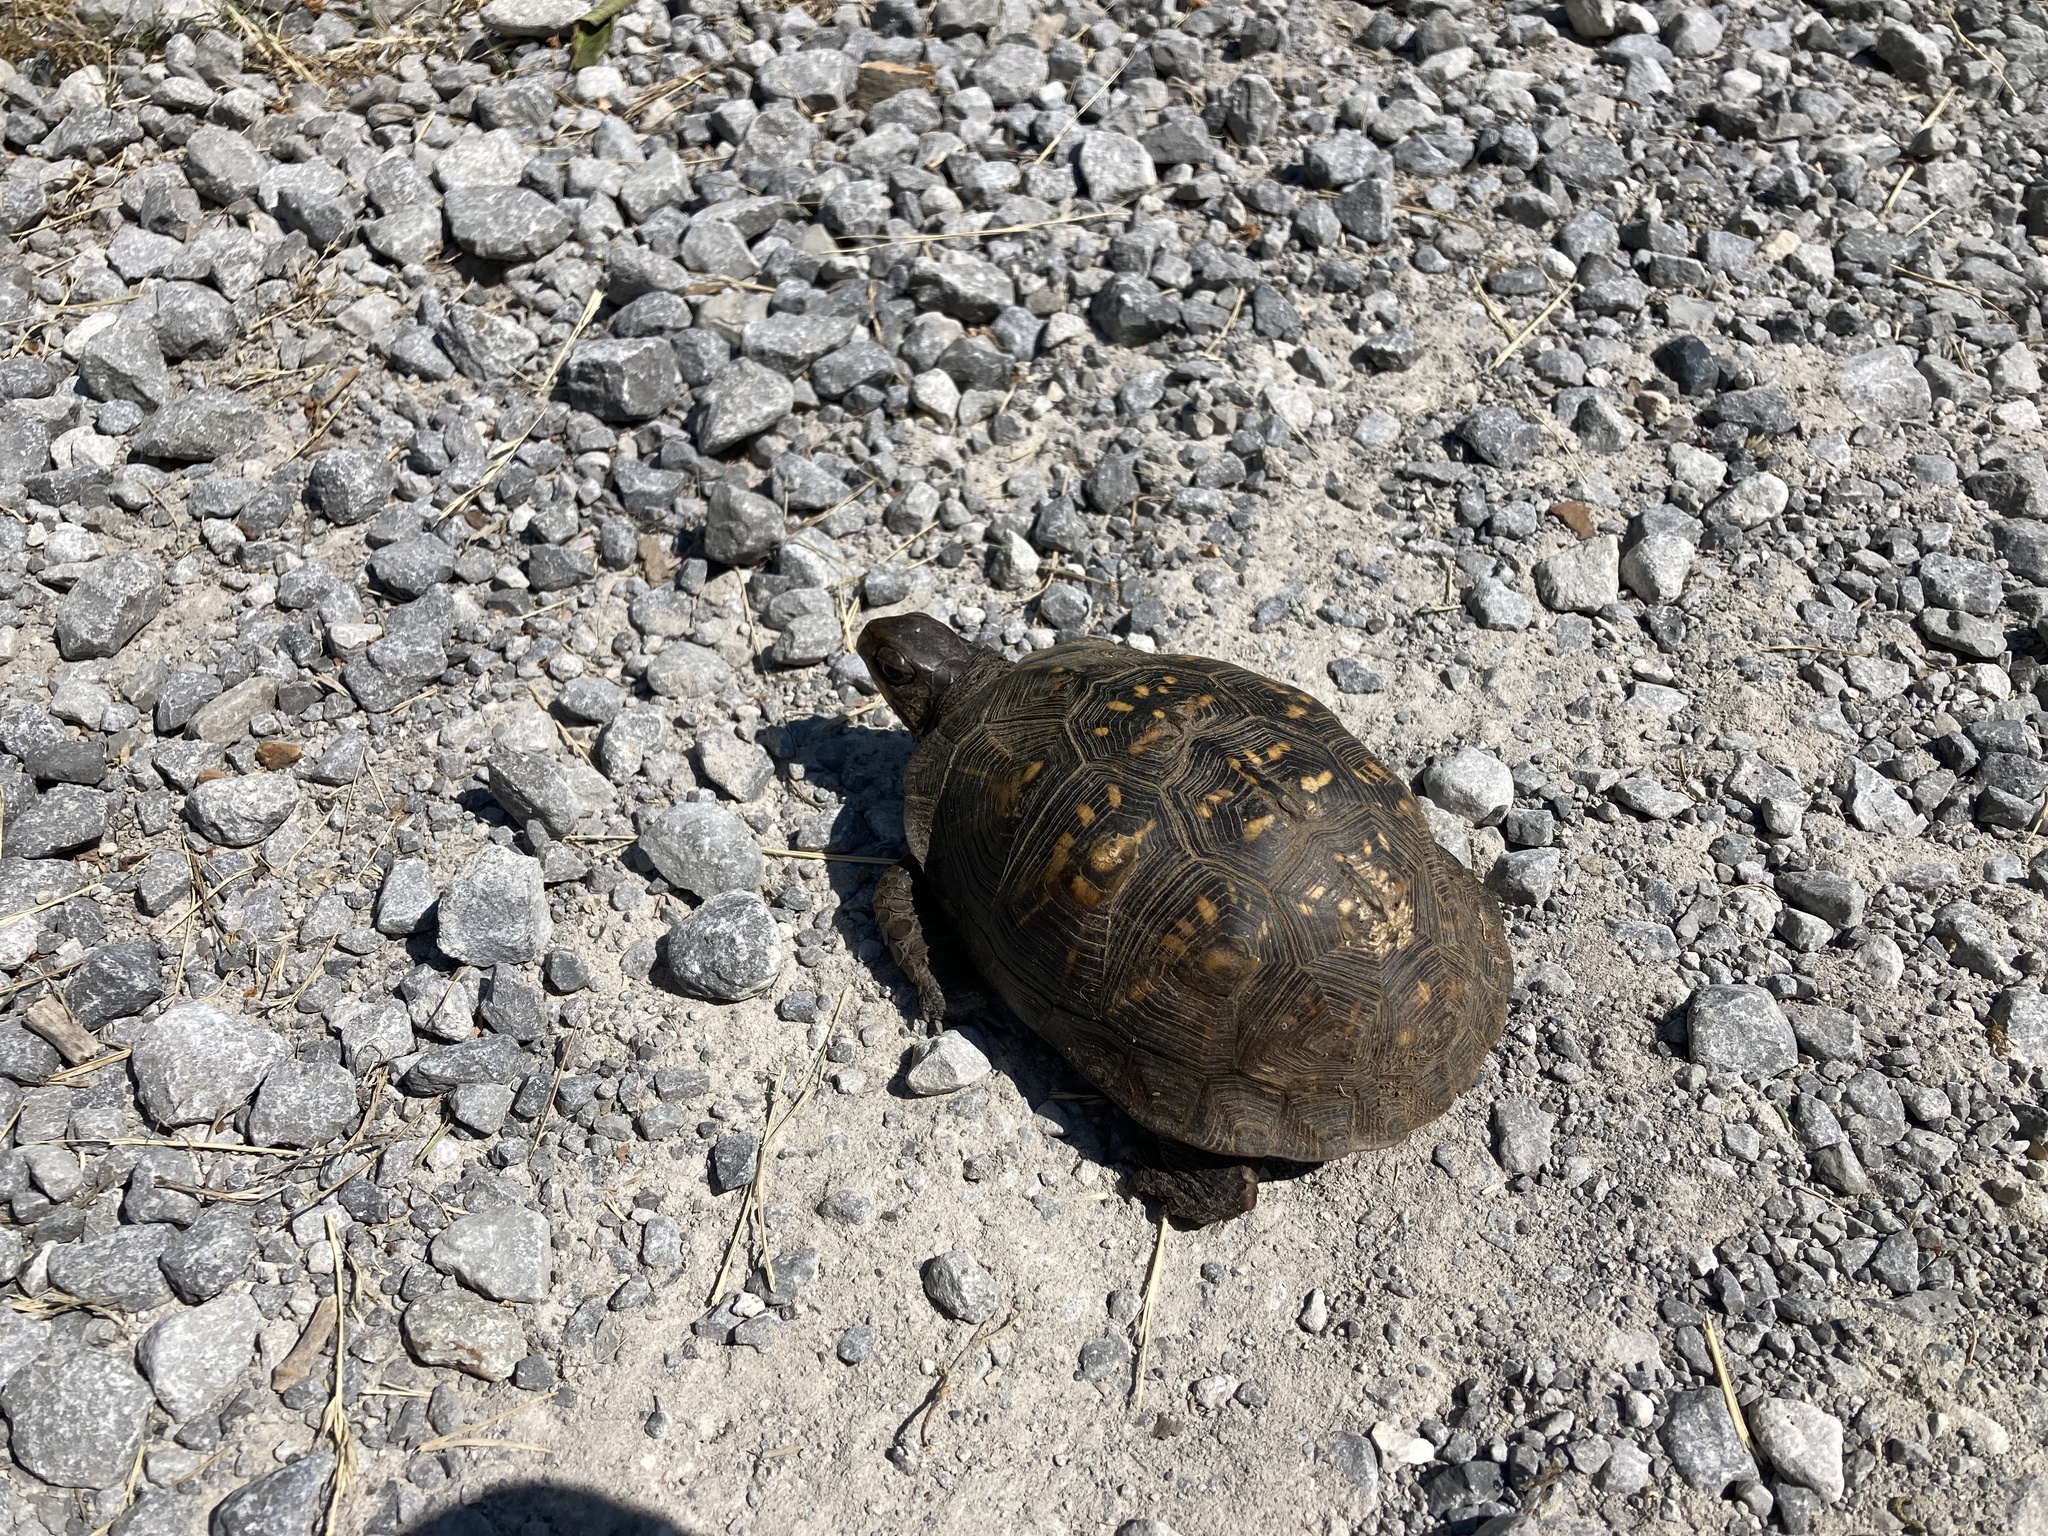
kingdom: Animalia
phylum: Chordata
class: Testudines
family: Emydidae
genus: Terrapene
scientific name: Terrapene carolina
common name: Common box turtle
